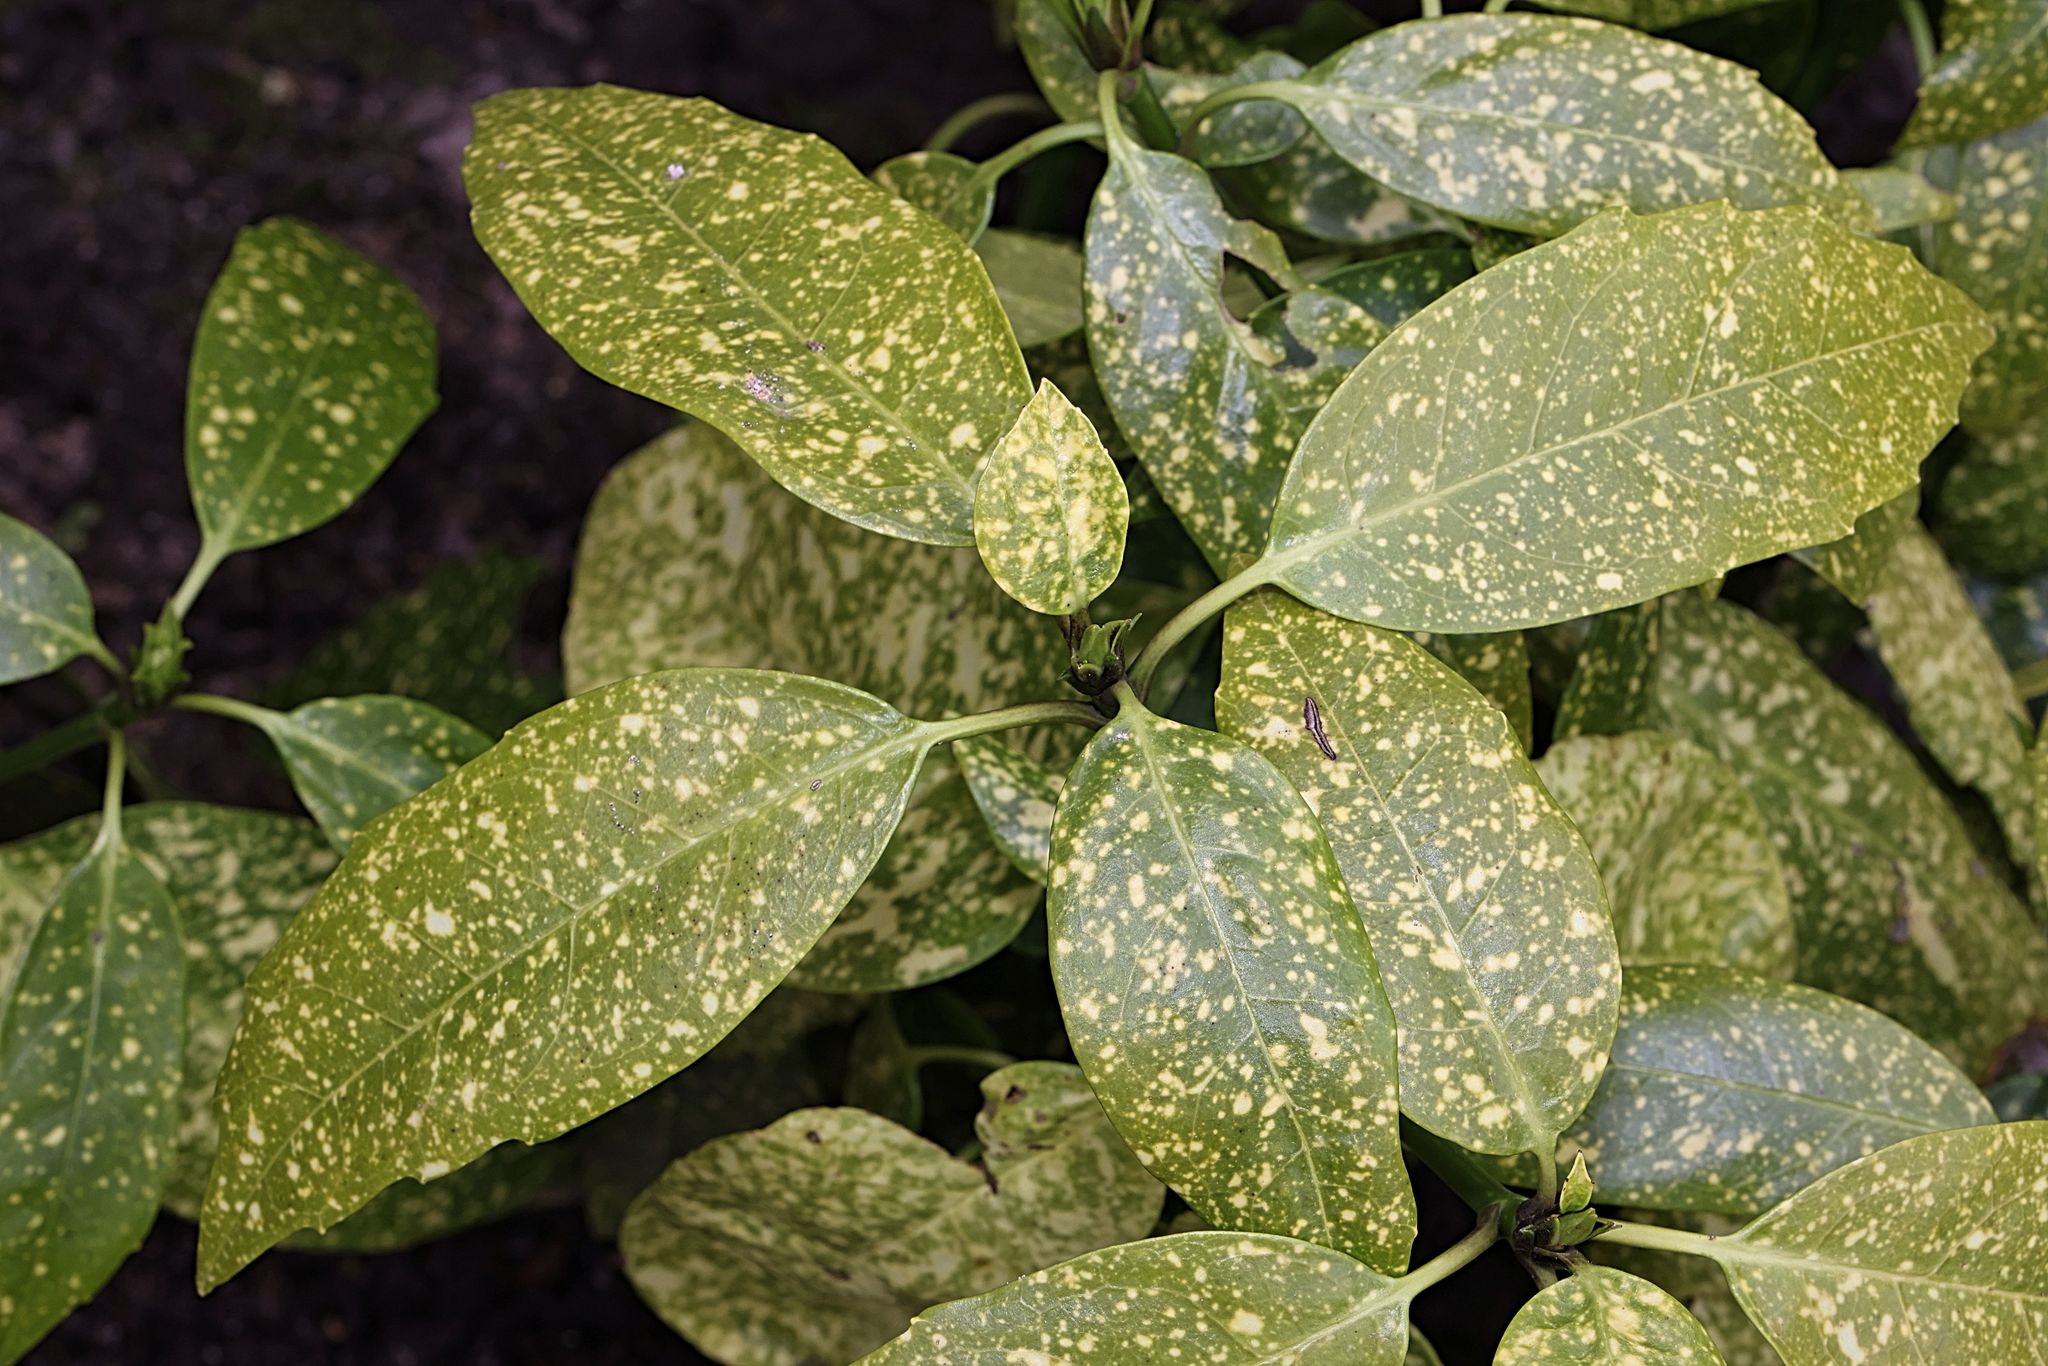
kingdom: Plantae
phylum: Tracheophyta
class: Magnoliopsida
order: Garryales
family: Garryaceae
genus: Aucuba
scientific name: Aucuba japonica
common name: Spotted-laurel
